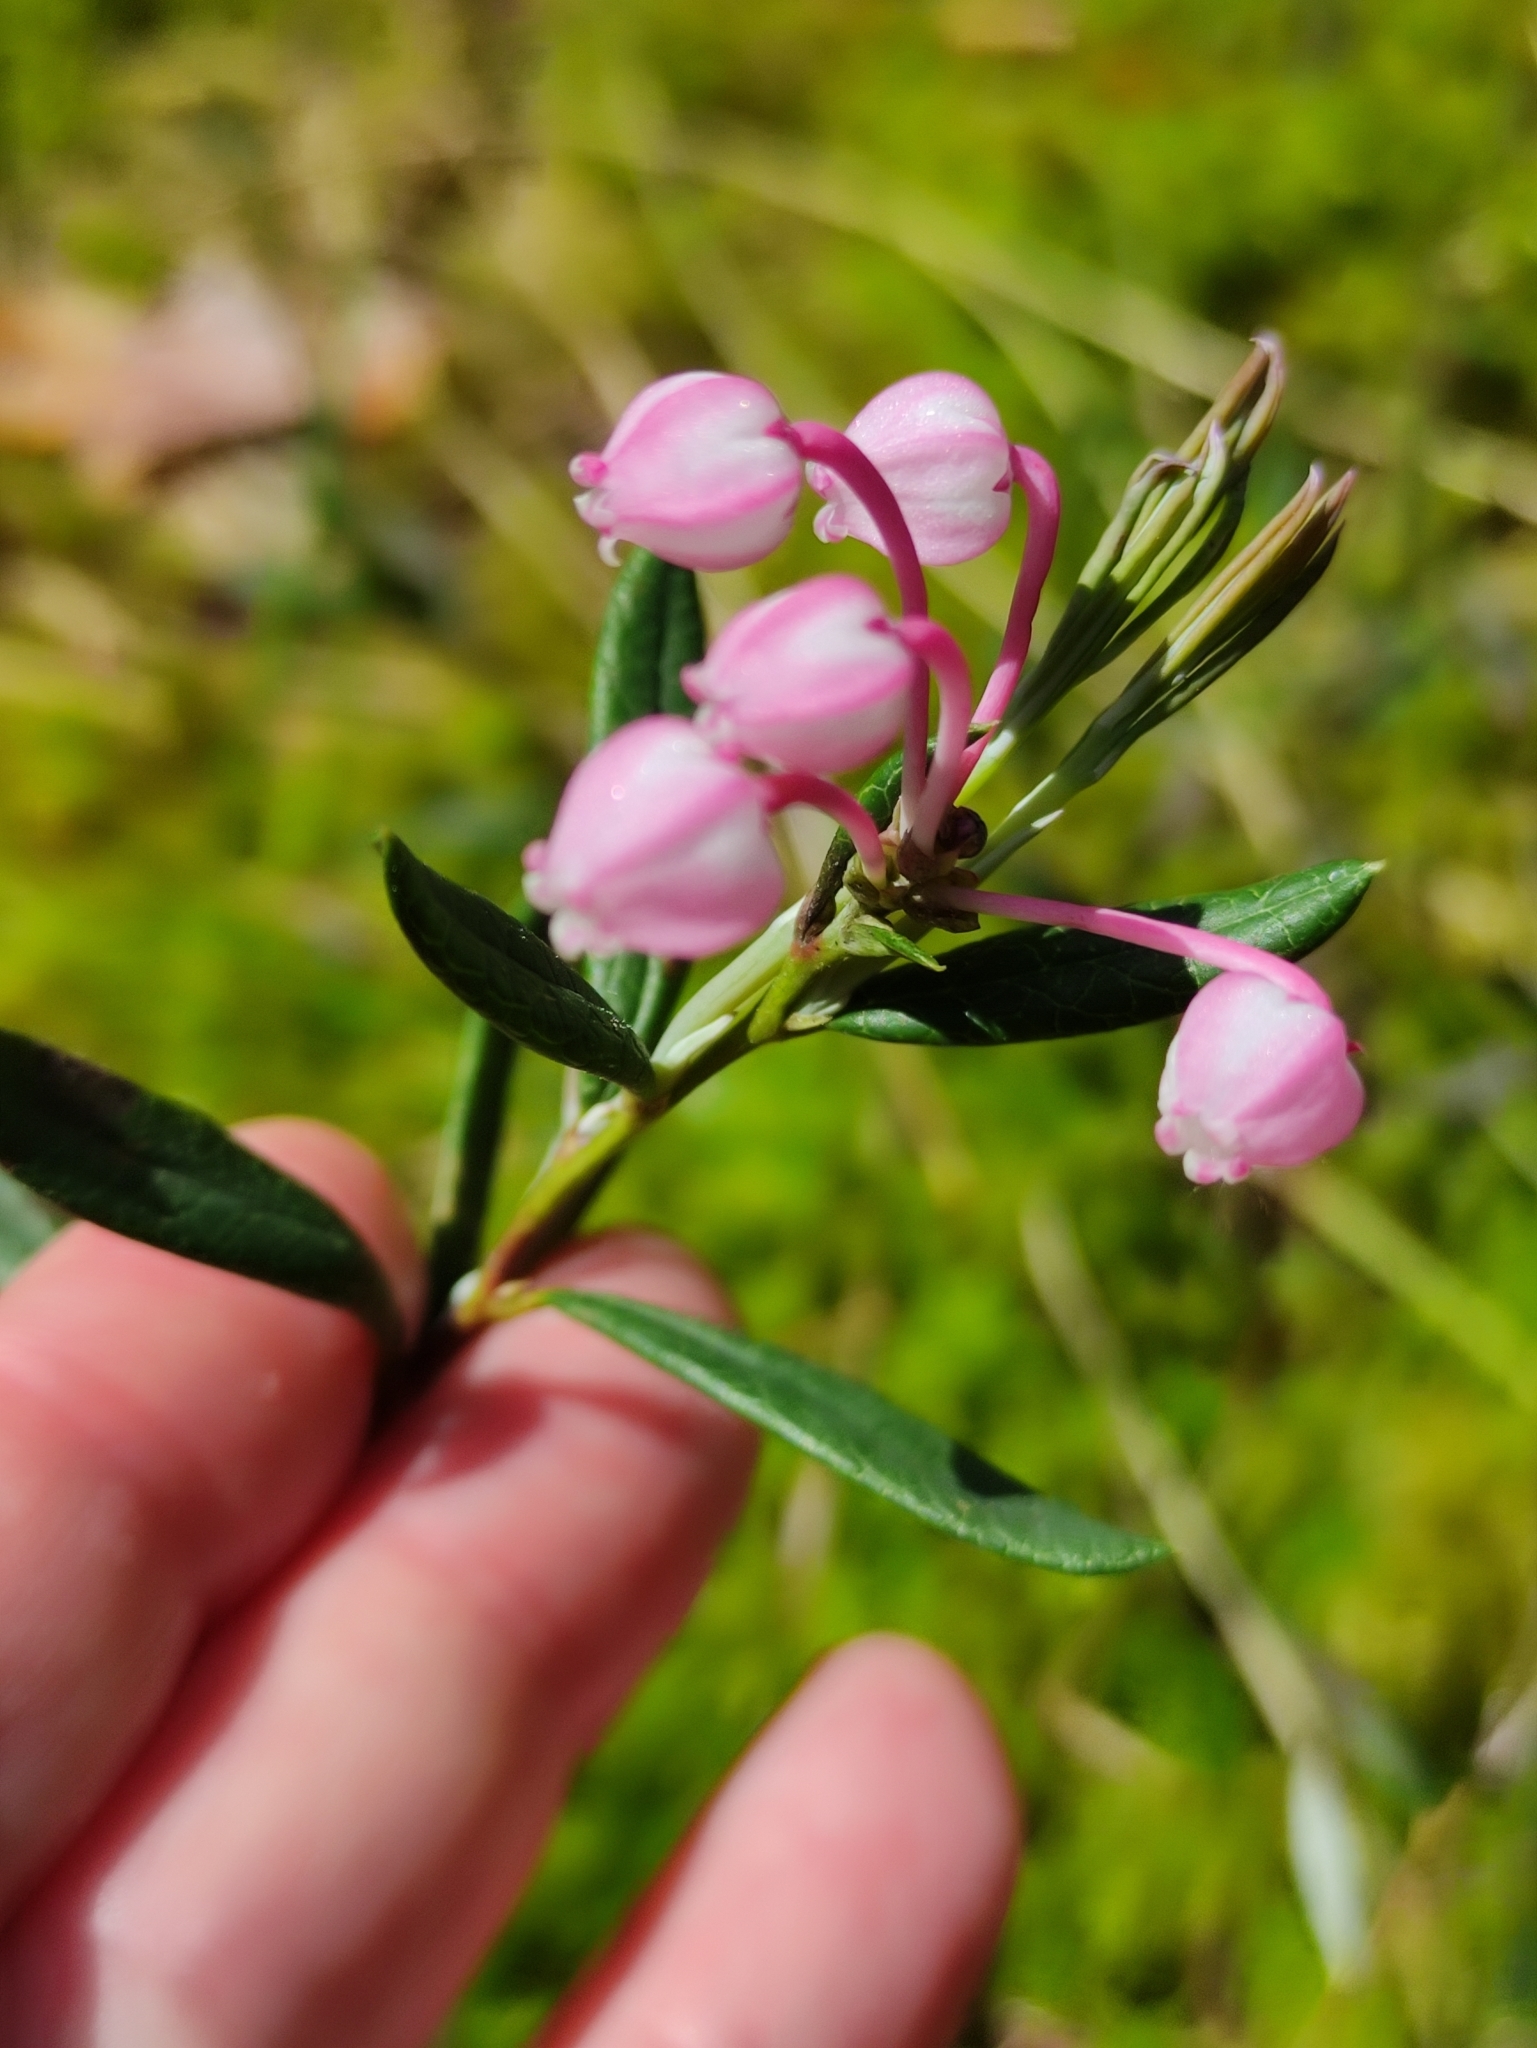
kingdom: Plantae
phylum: Tracheophyta
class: Magnoliopsida
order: Ericales
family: Ericaceae
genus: Andromeda
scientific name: Andromeda polifolia
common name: Bog-rosemary
